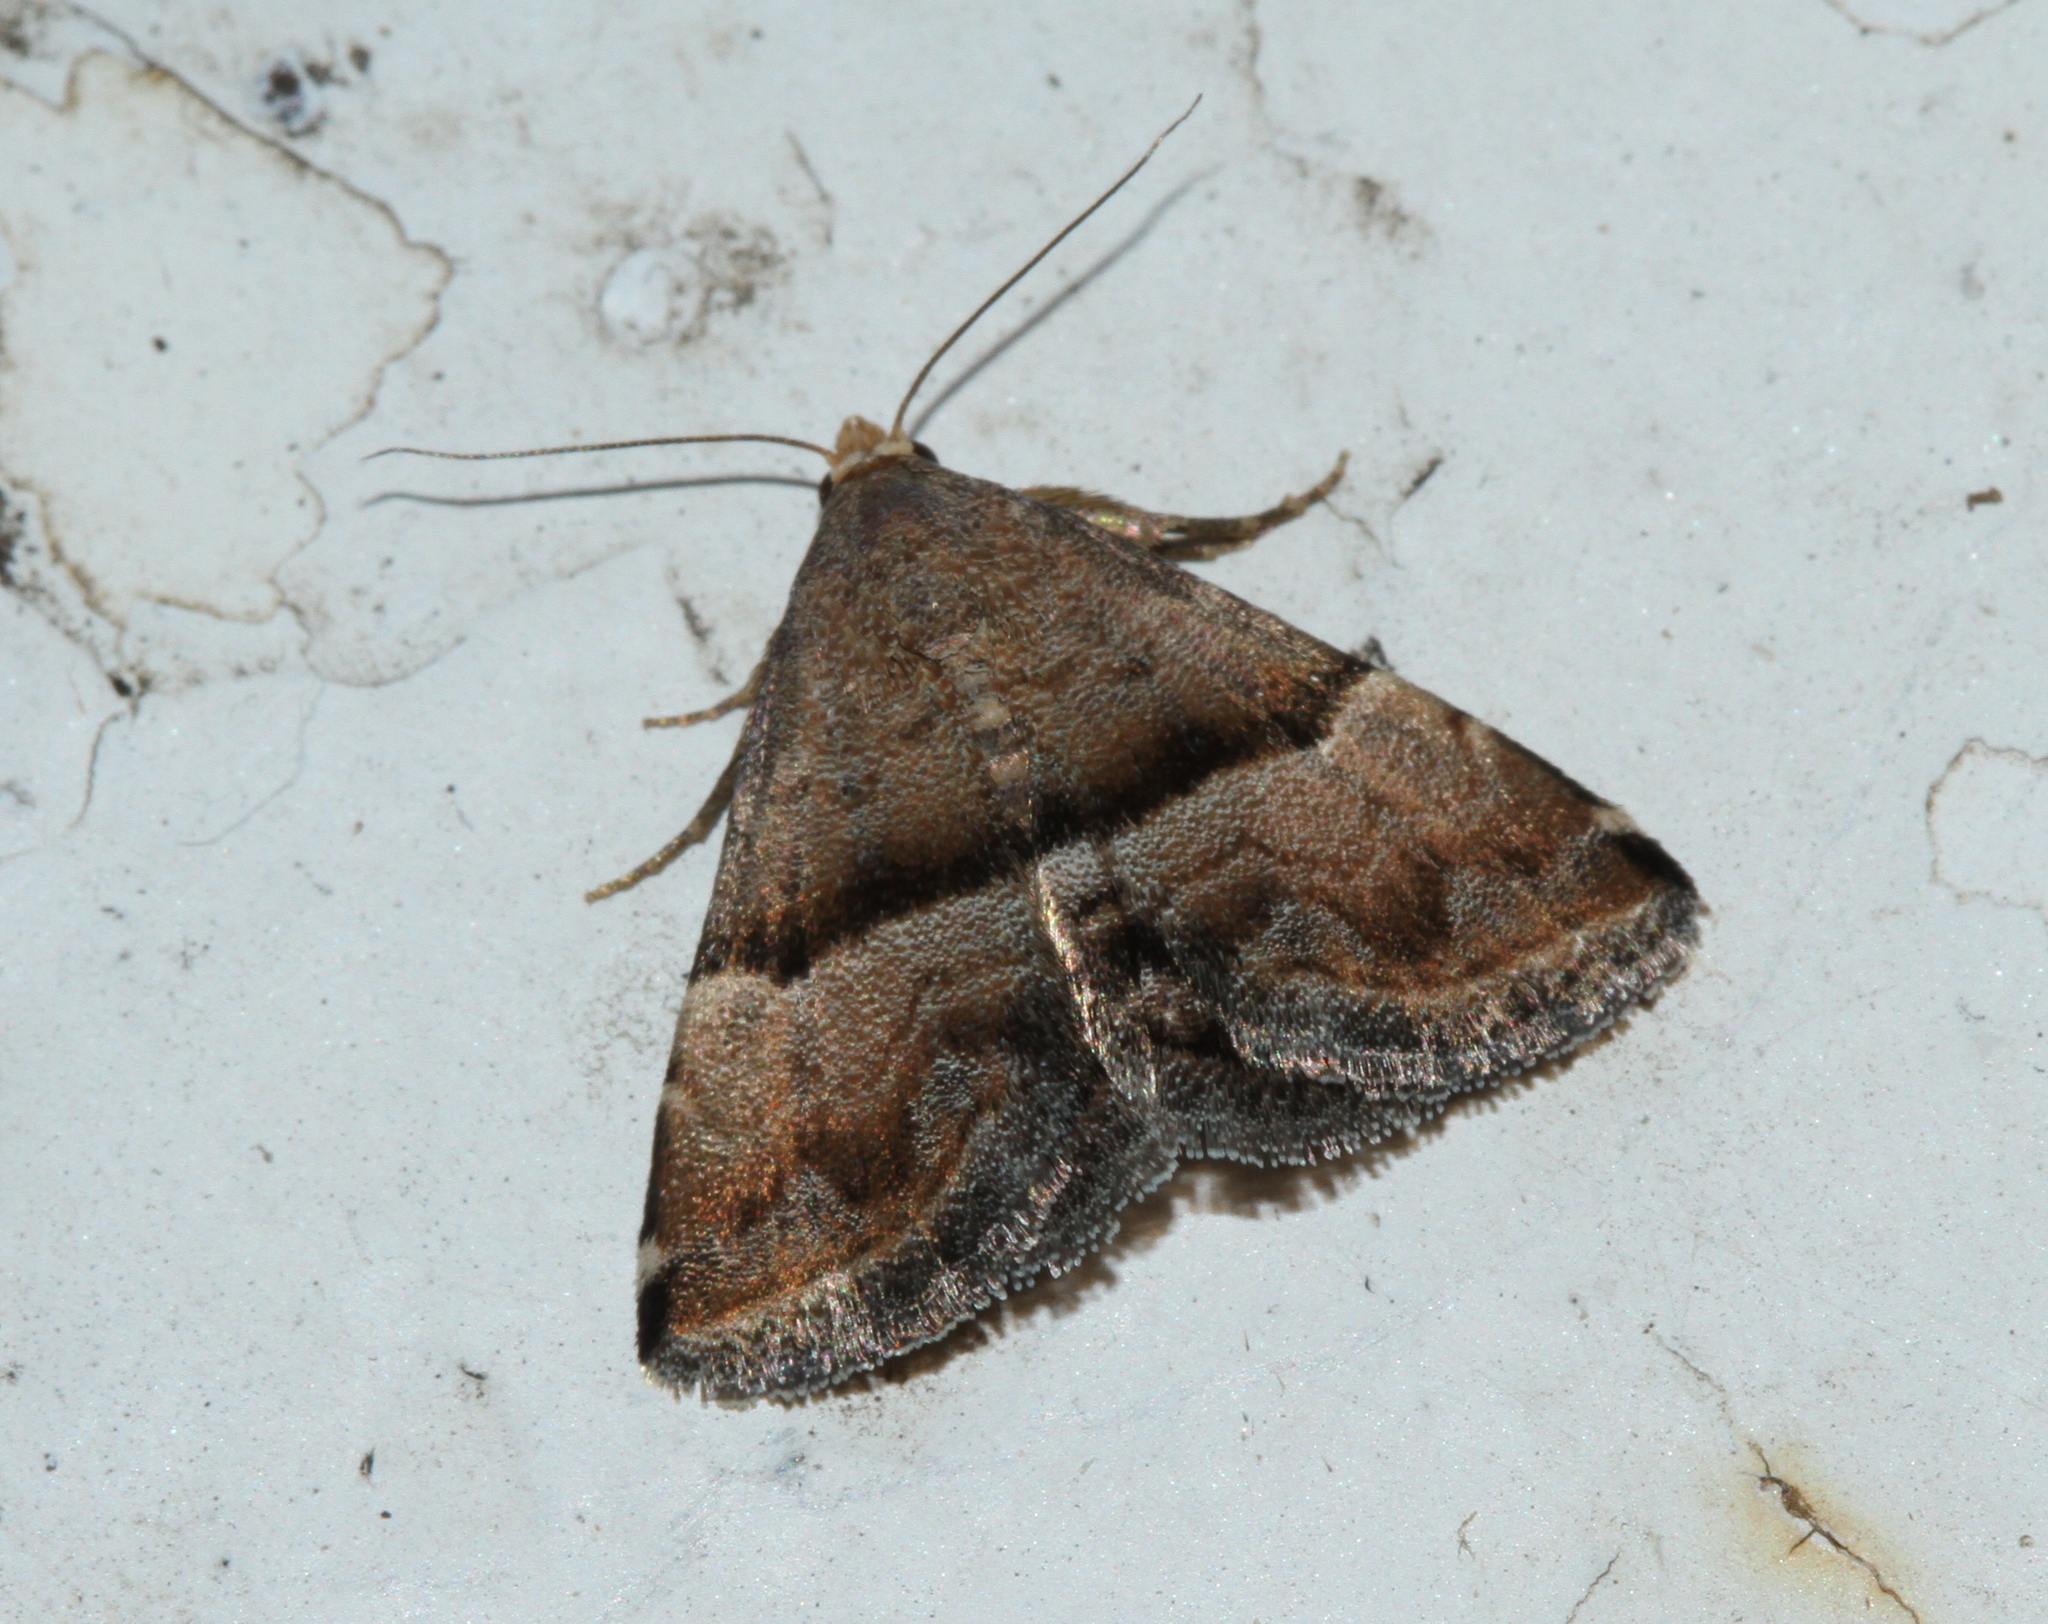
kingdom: Animalia
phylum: Arthropoda
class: Insecta
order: Lepidoptera
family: Noctuidae
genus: Odice
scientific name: Odice jucunda
